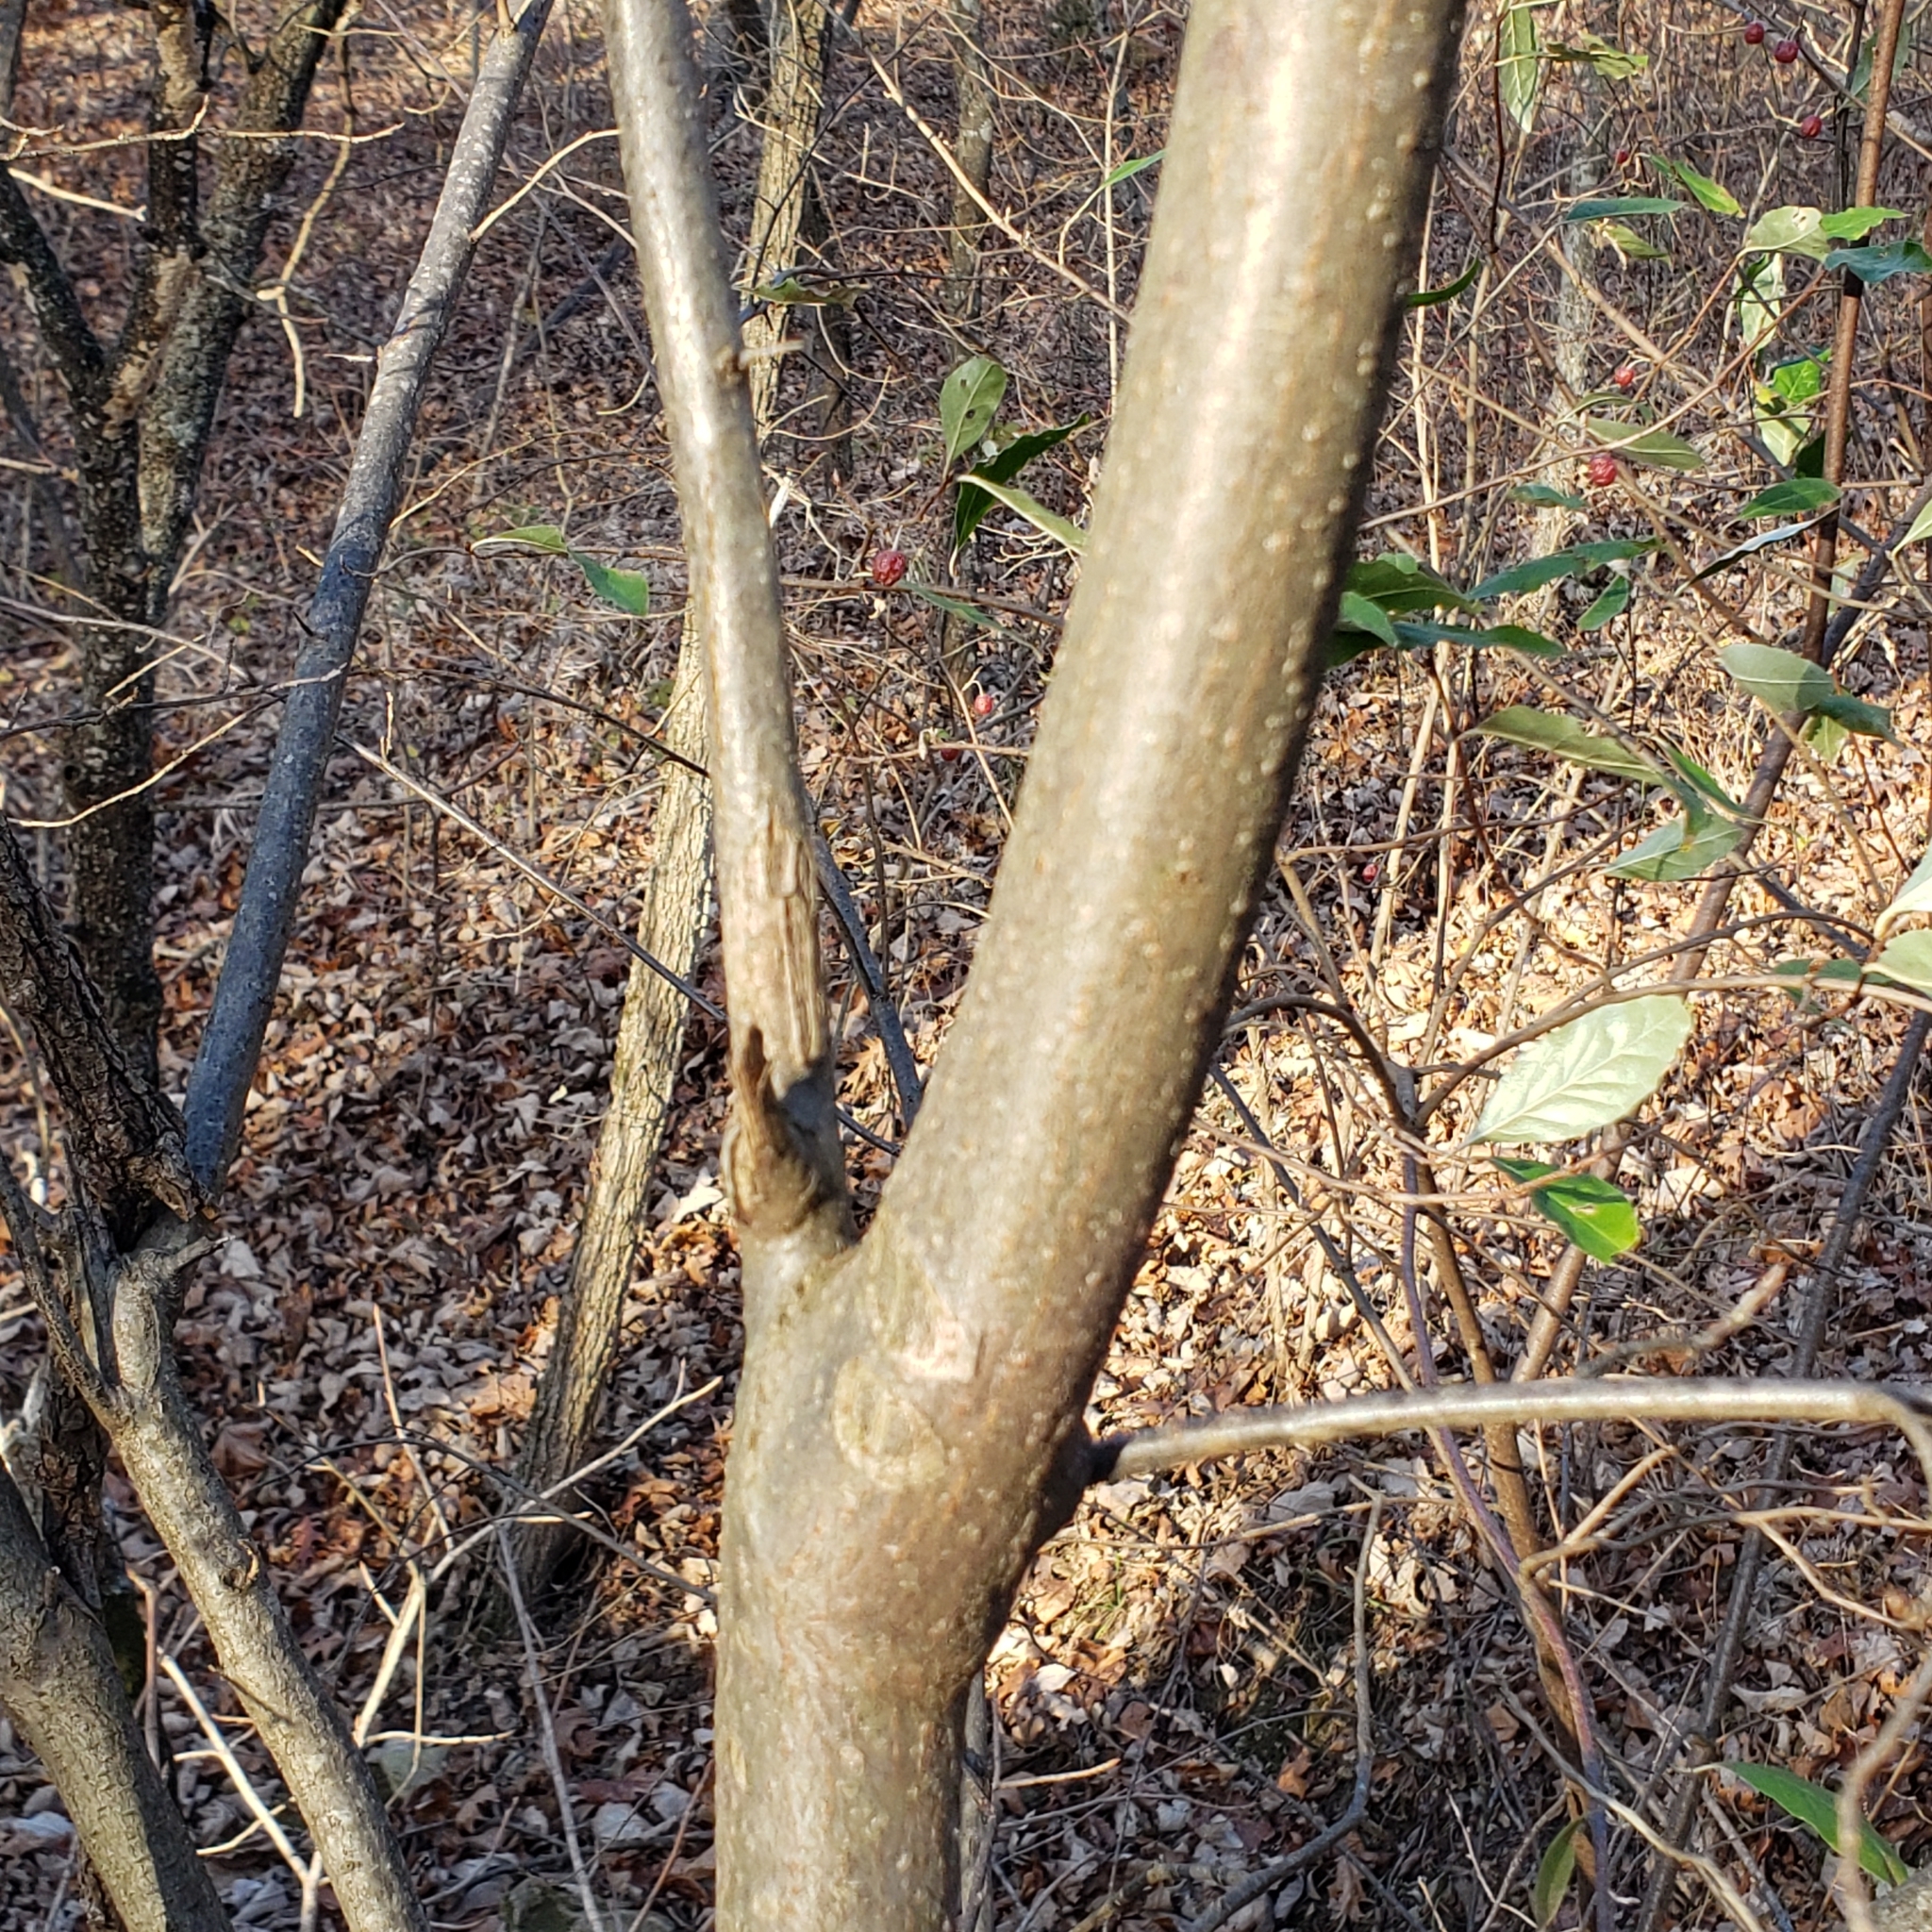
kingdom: Plantae
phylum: Tracheophyta
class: Magnoliopsida
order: Rosales
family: Elaeagnaceae
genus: Elaeagnus
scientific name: Elaeagnus umbellata
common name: Autumn olive
